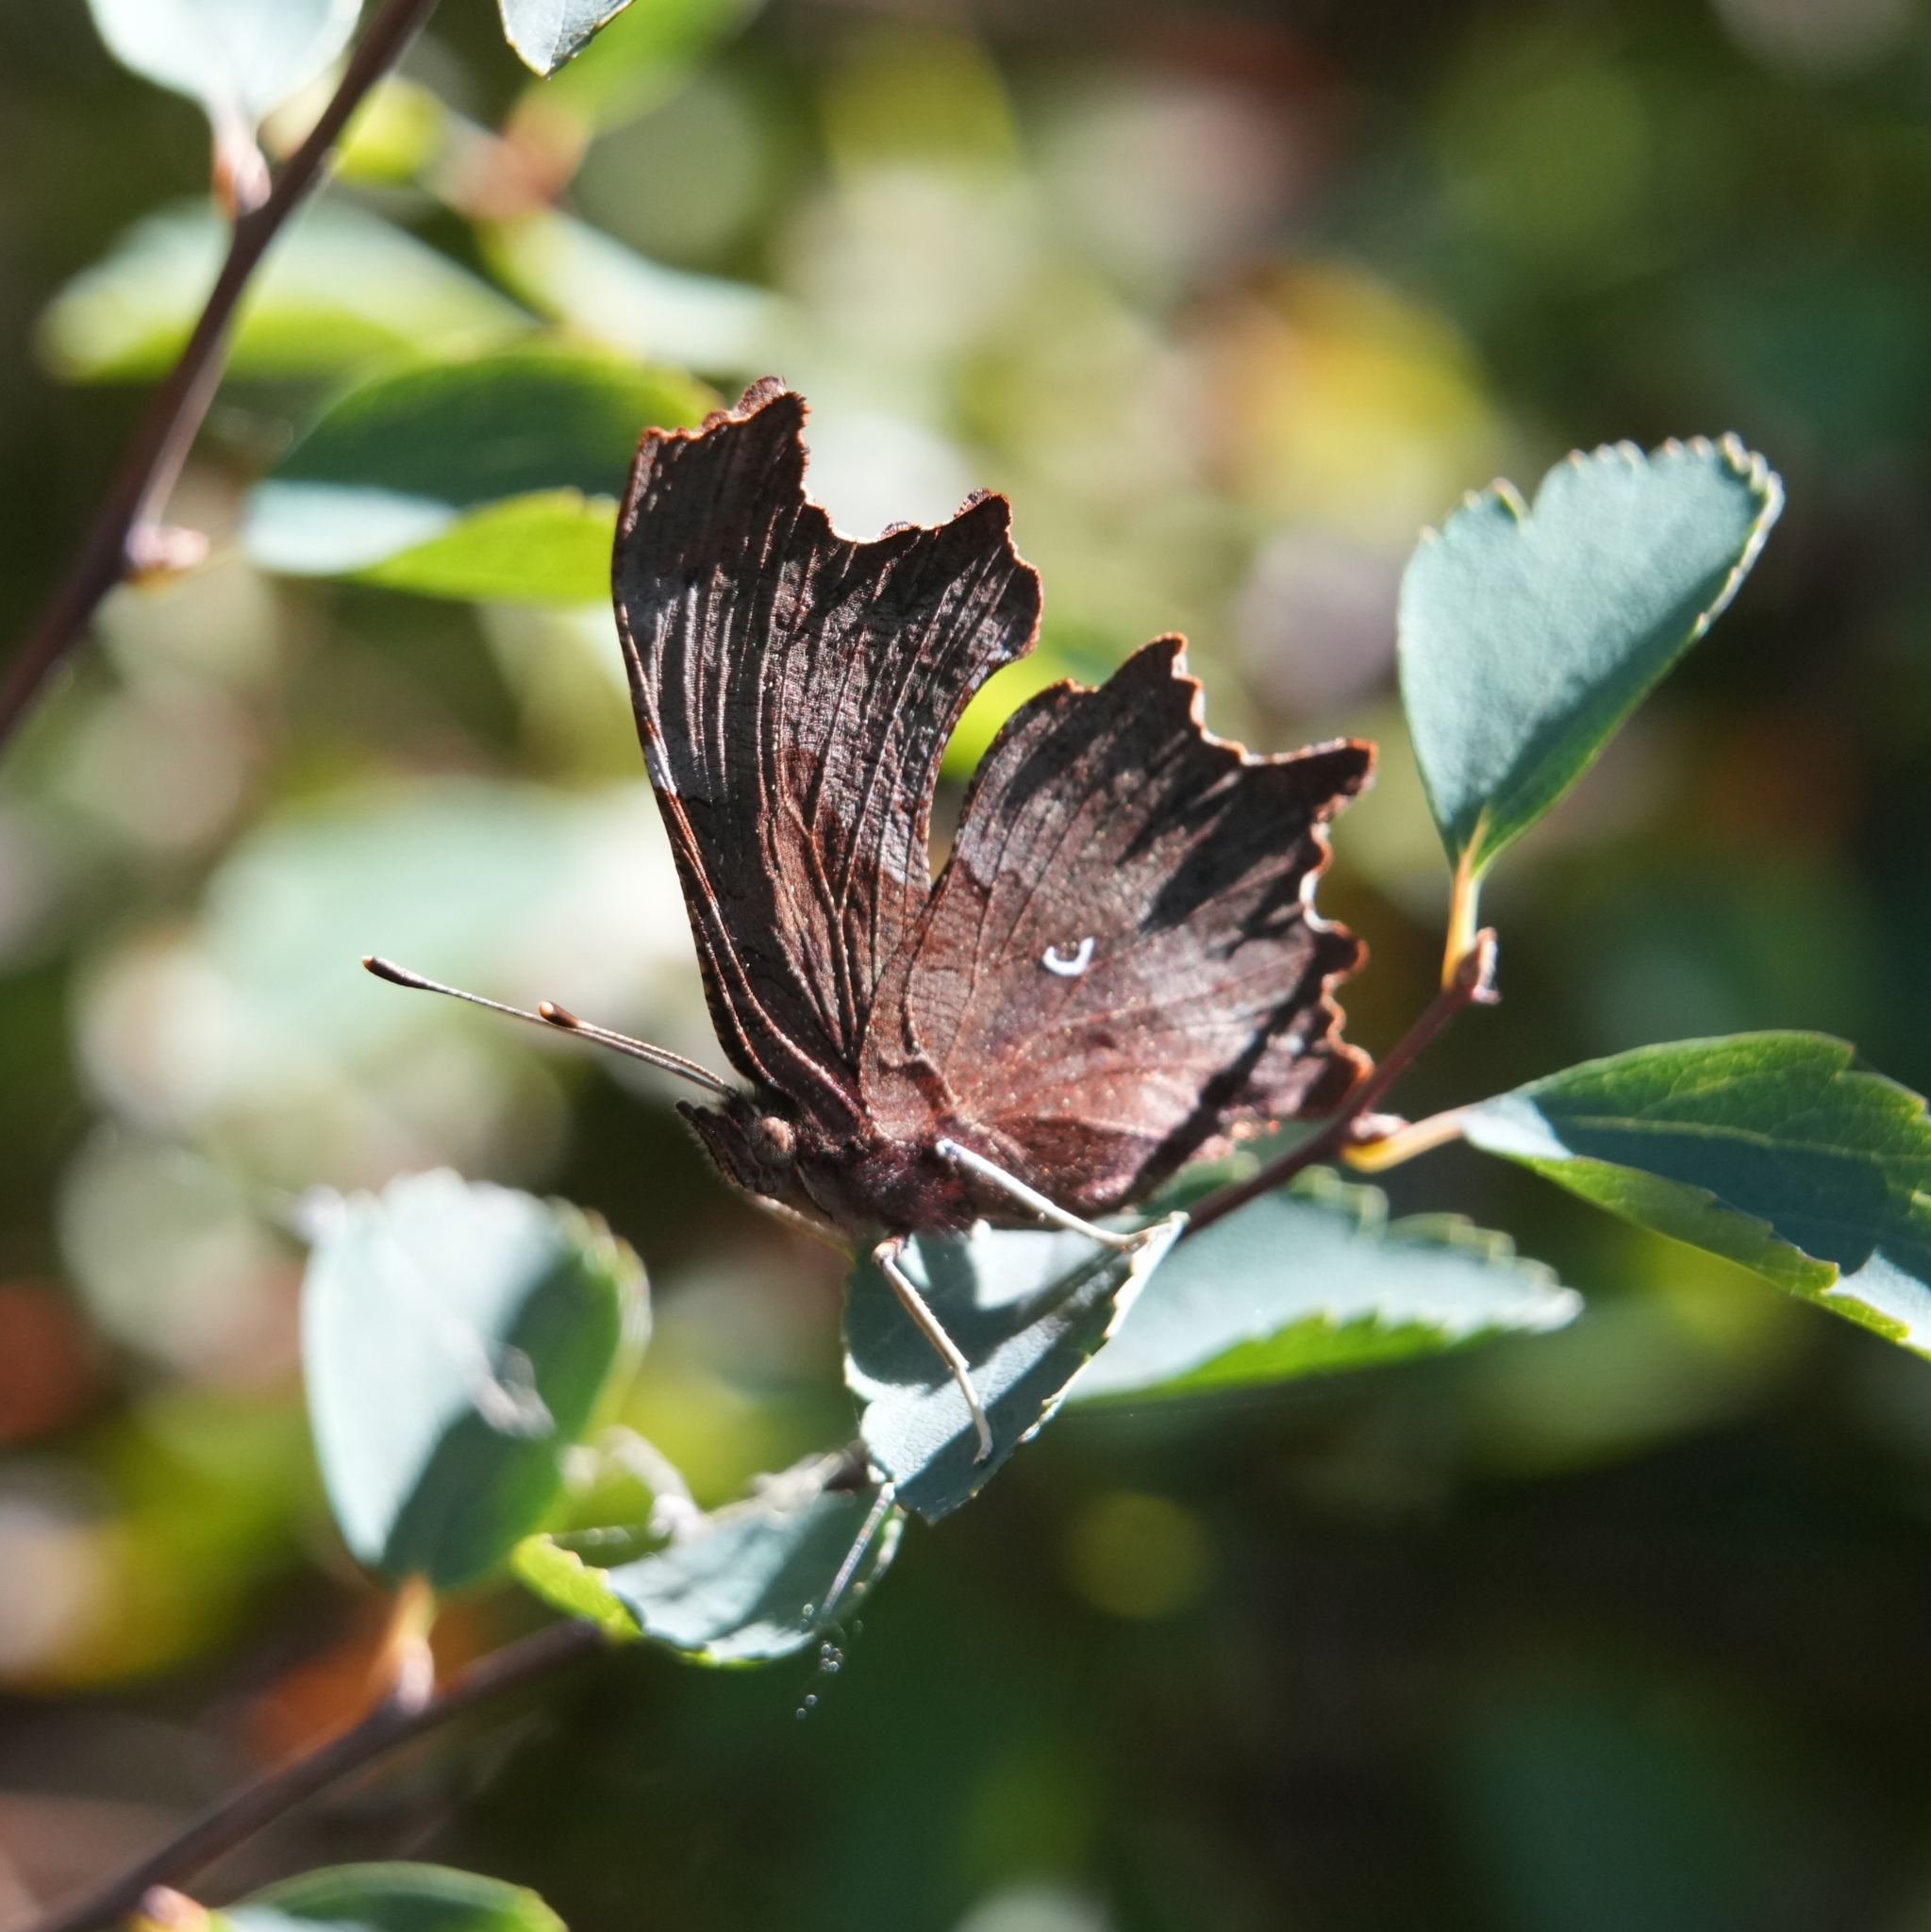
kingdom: Animalia
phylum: Arthropoda
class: Insecta
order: Lepidoptera
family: Nymphalidae
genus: Polygonia
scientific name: Polygonia c-album
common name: Comma
